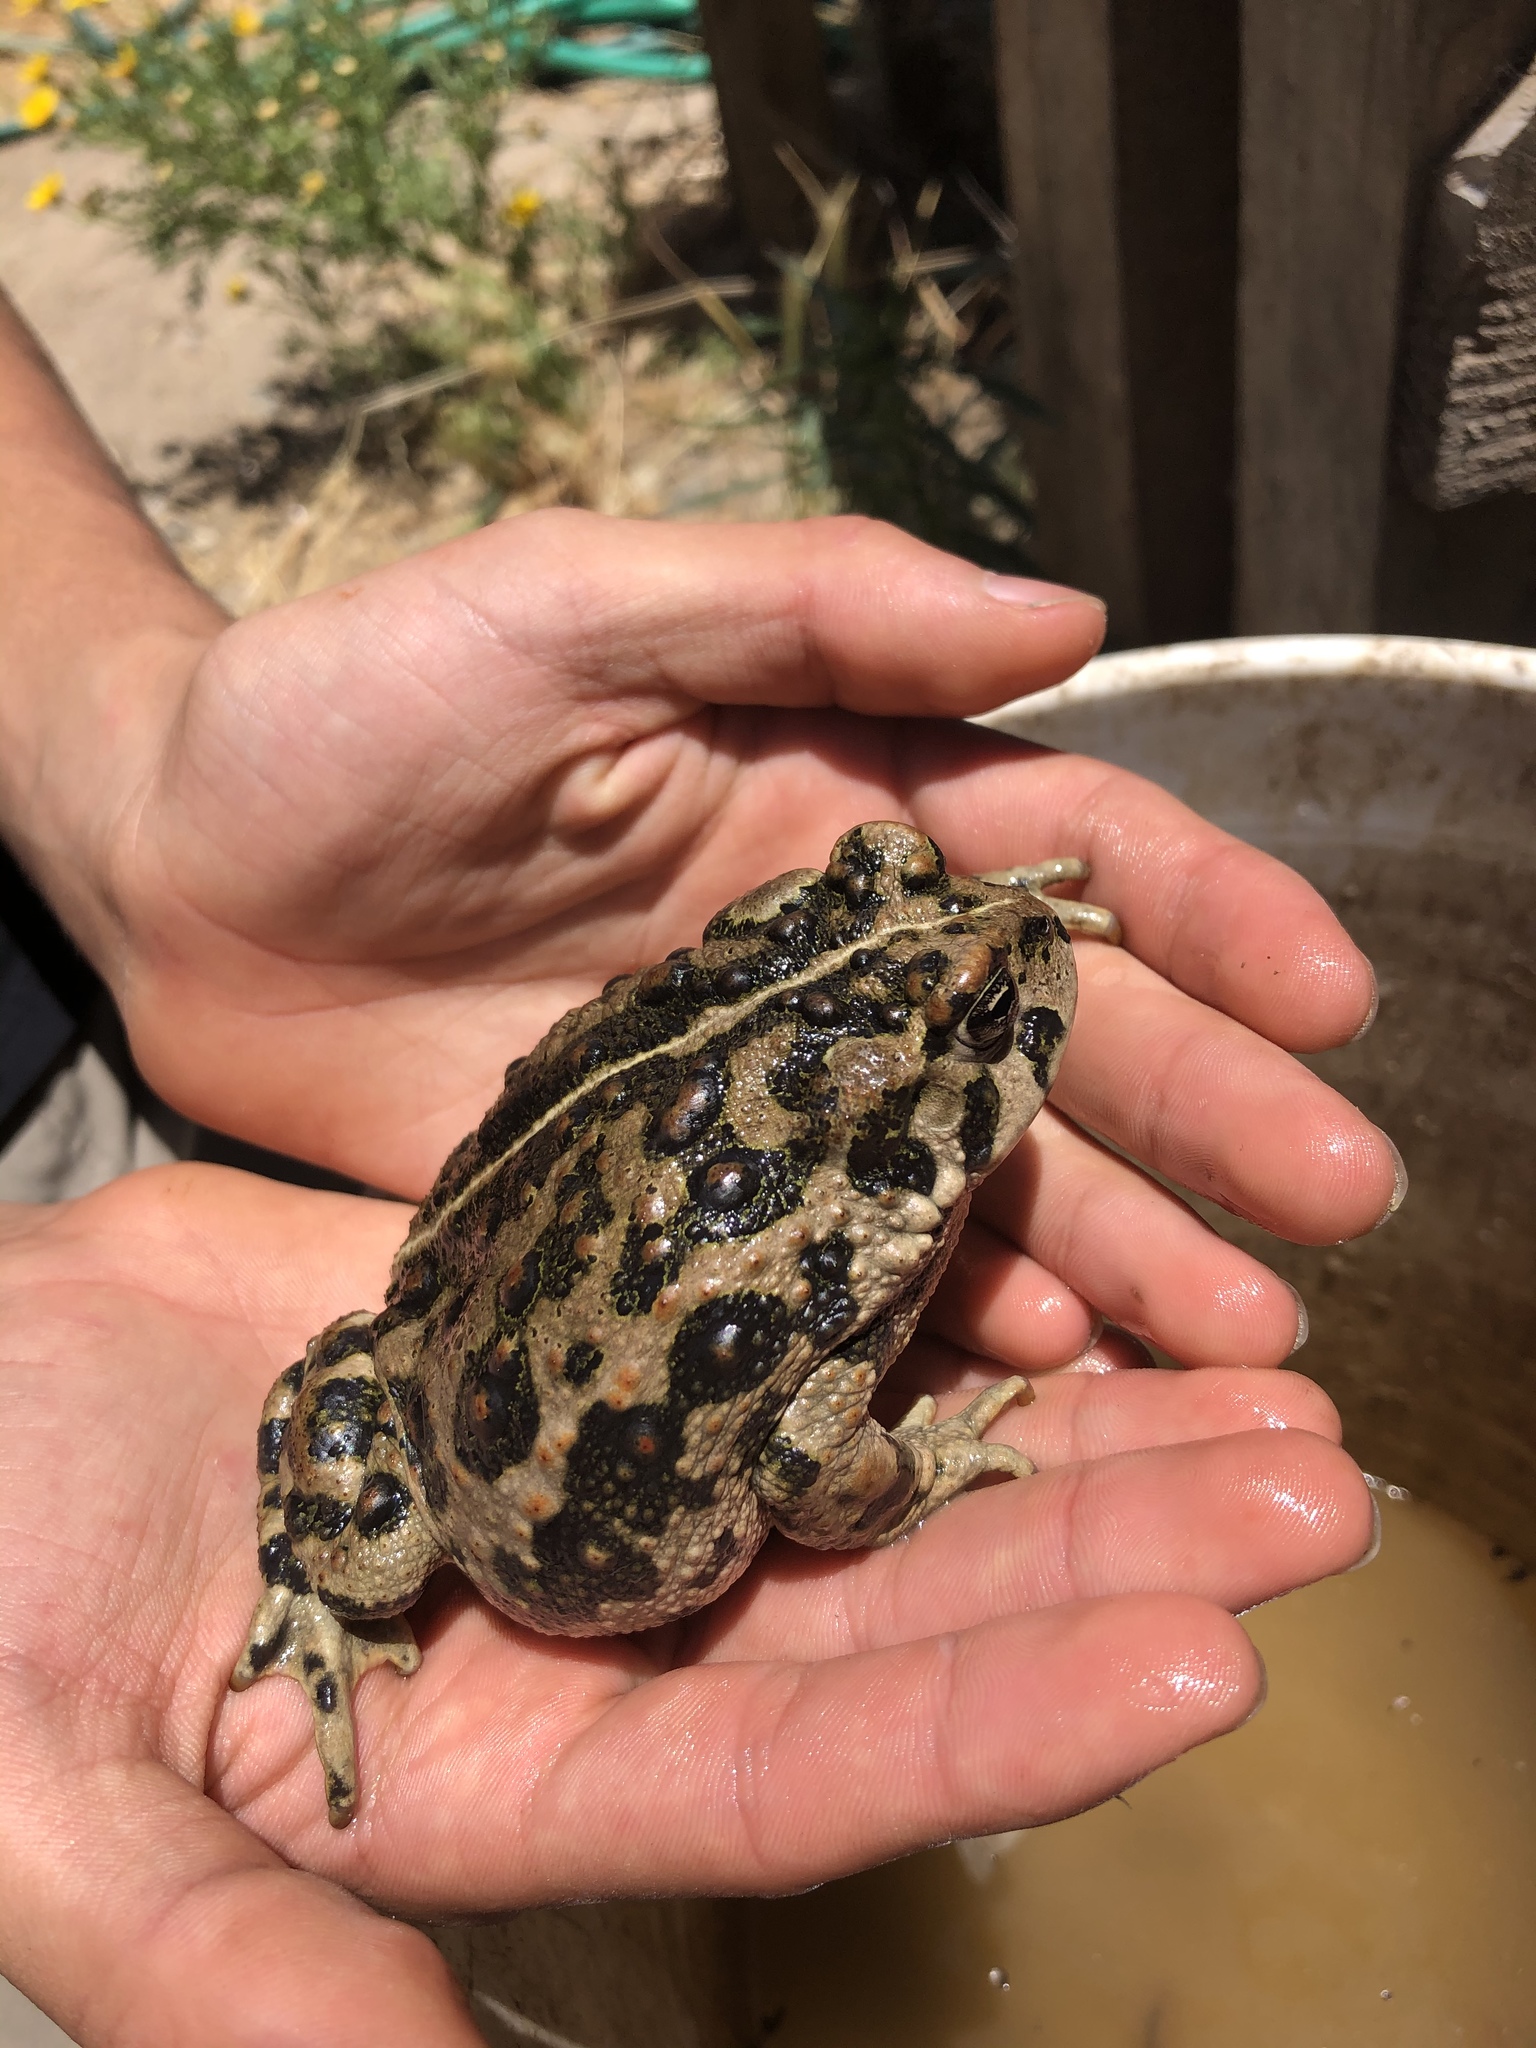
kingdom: Animalia
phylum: Chordata
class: Amphibia
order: Anura
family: Bufonidae
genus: Anaxyrus
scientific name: Anaxyrus boreas
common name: Western toad
